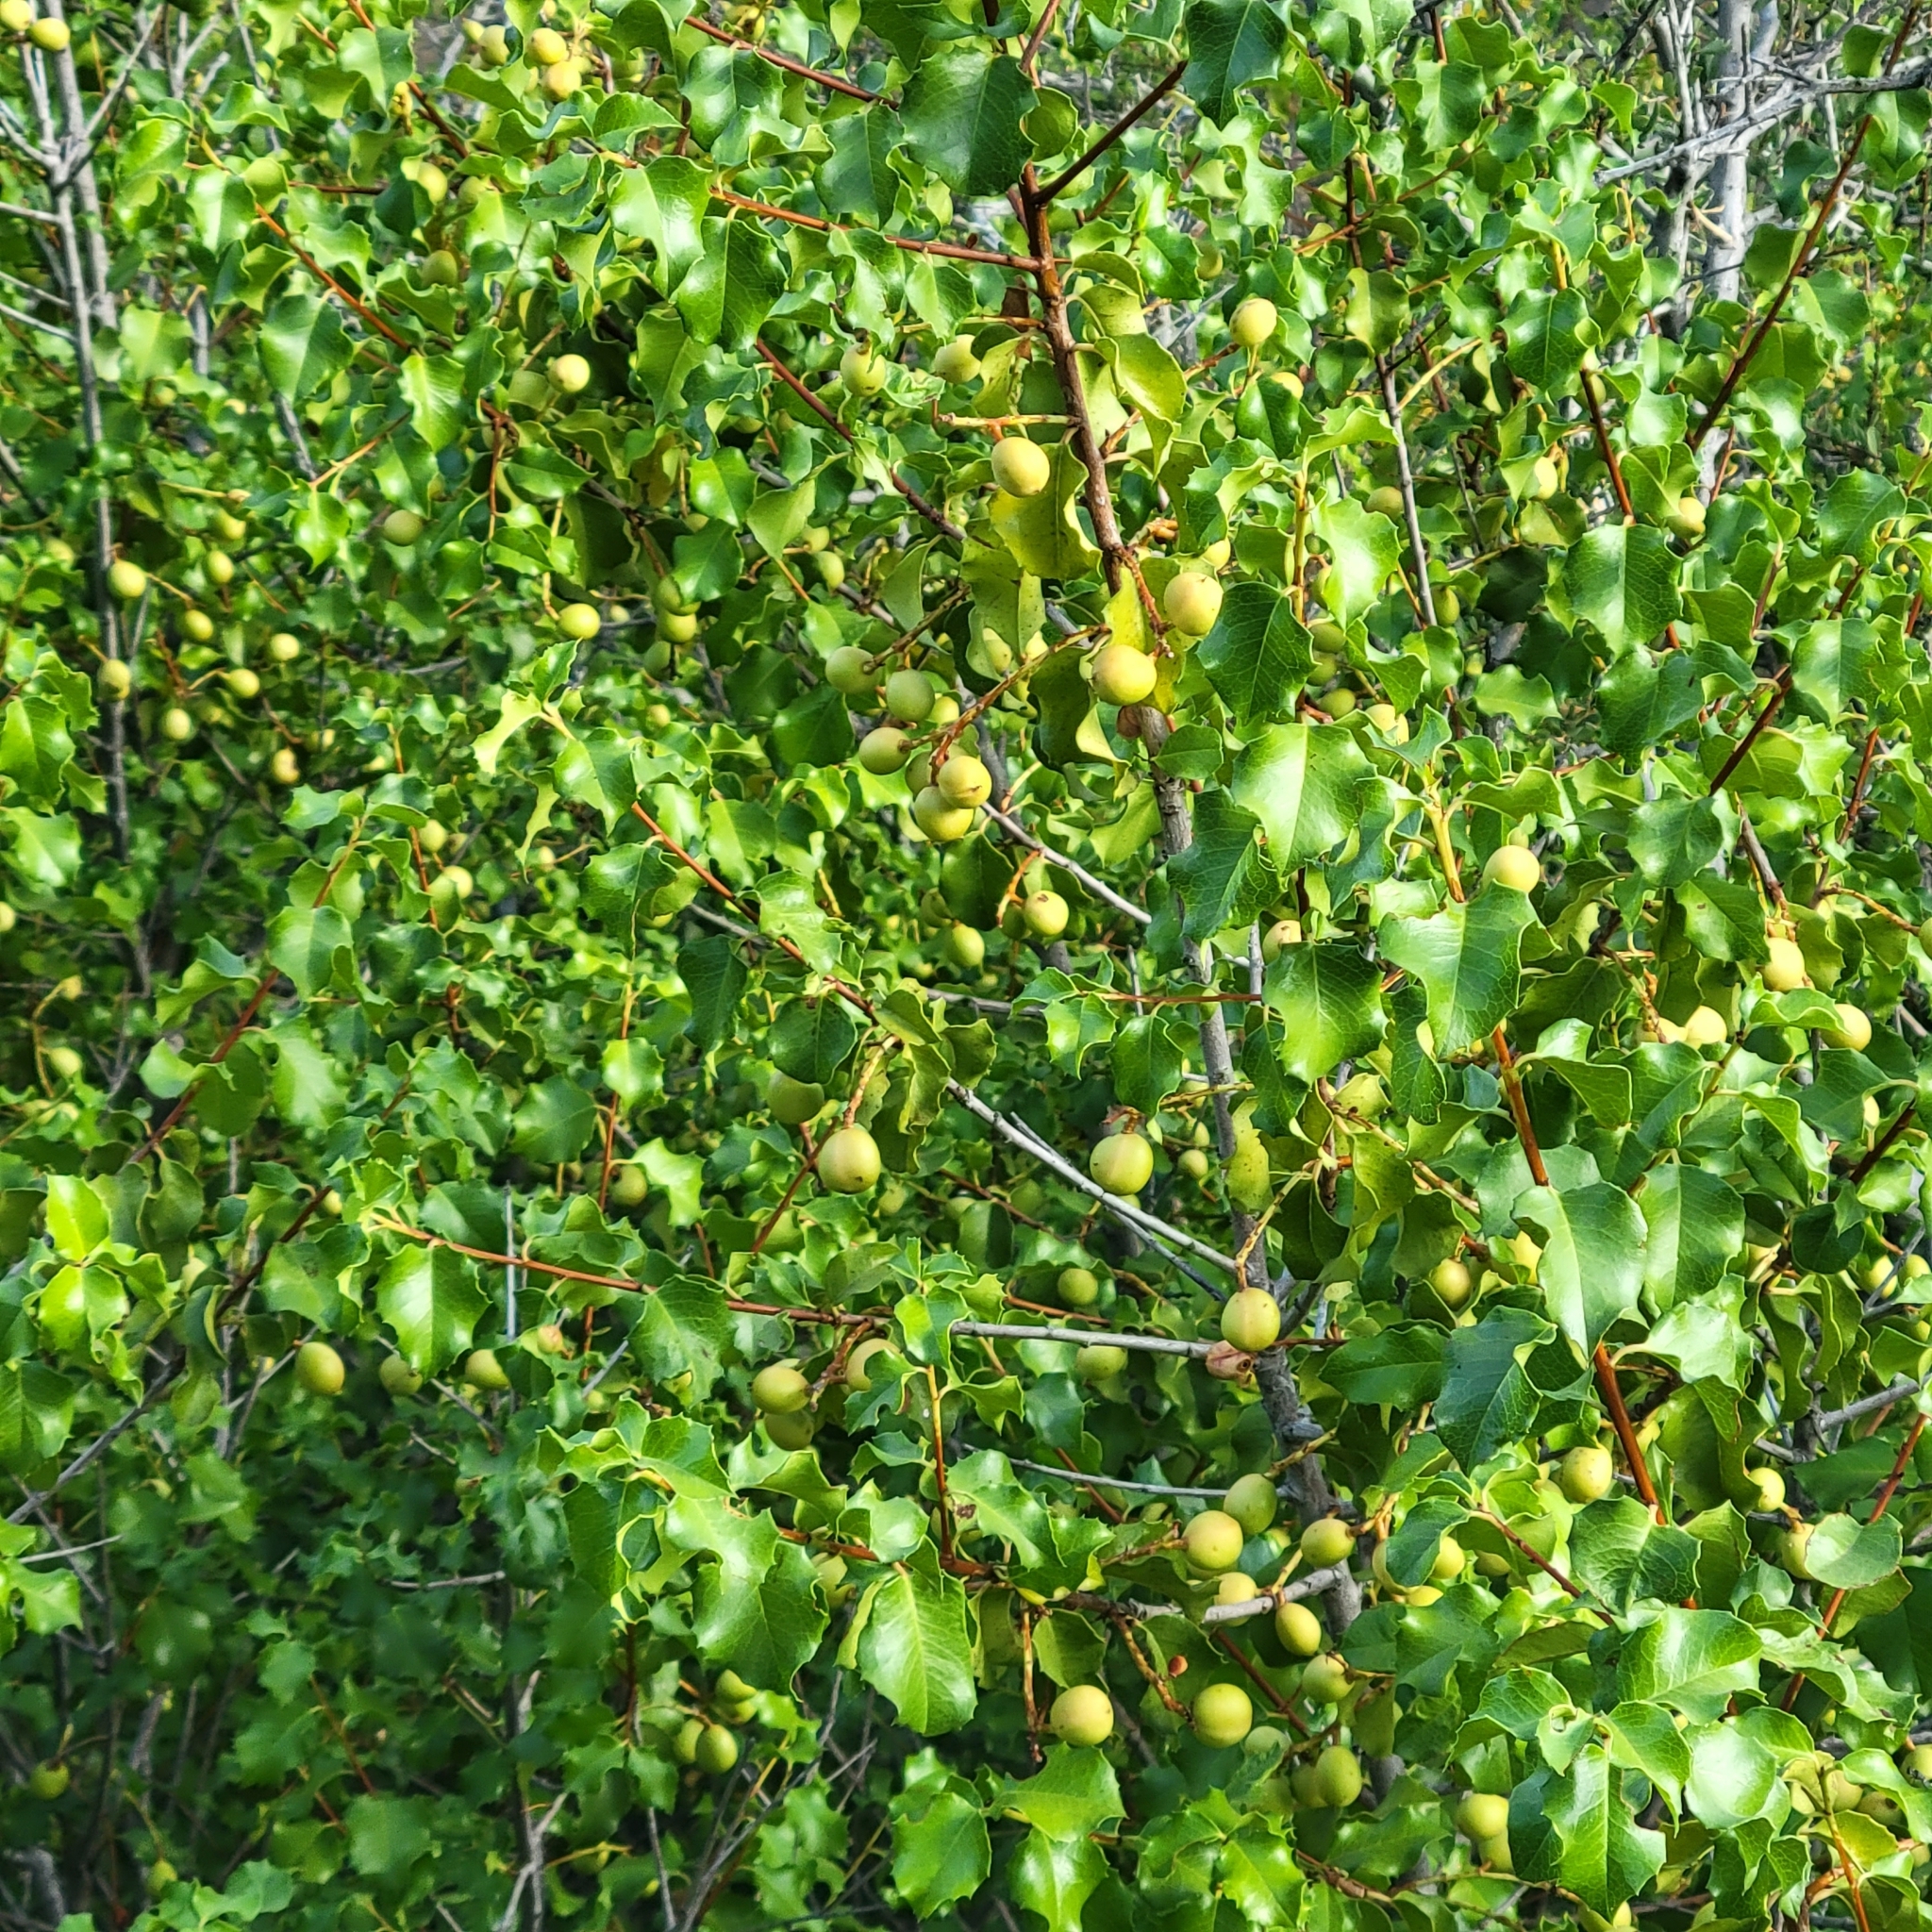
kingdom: Plantae
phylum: Tracheophyta
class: Magnoliopsida
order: Rosales
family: Rosaceae
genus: Prunus
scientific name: Prunus ilicifolia
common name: Hollyleaf cherry
